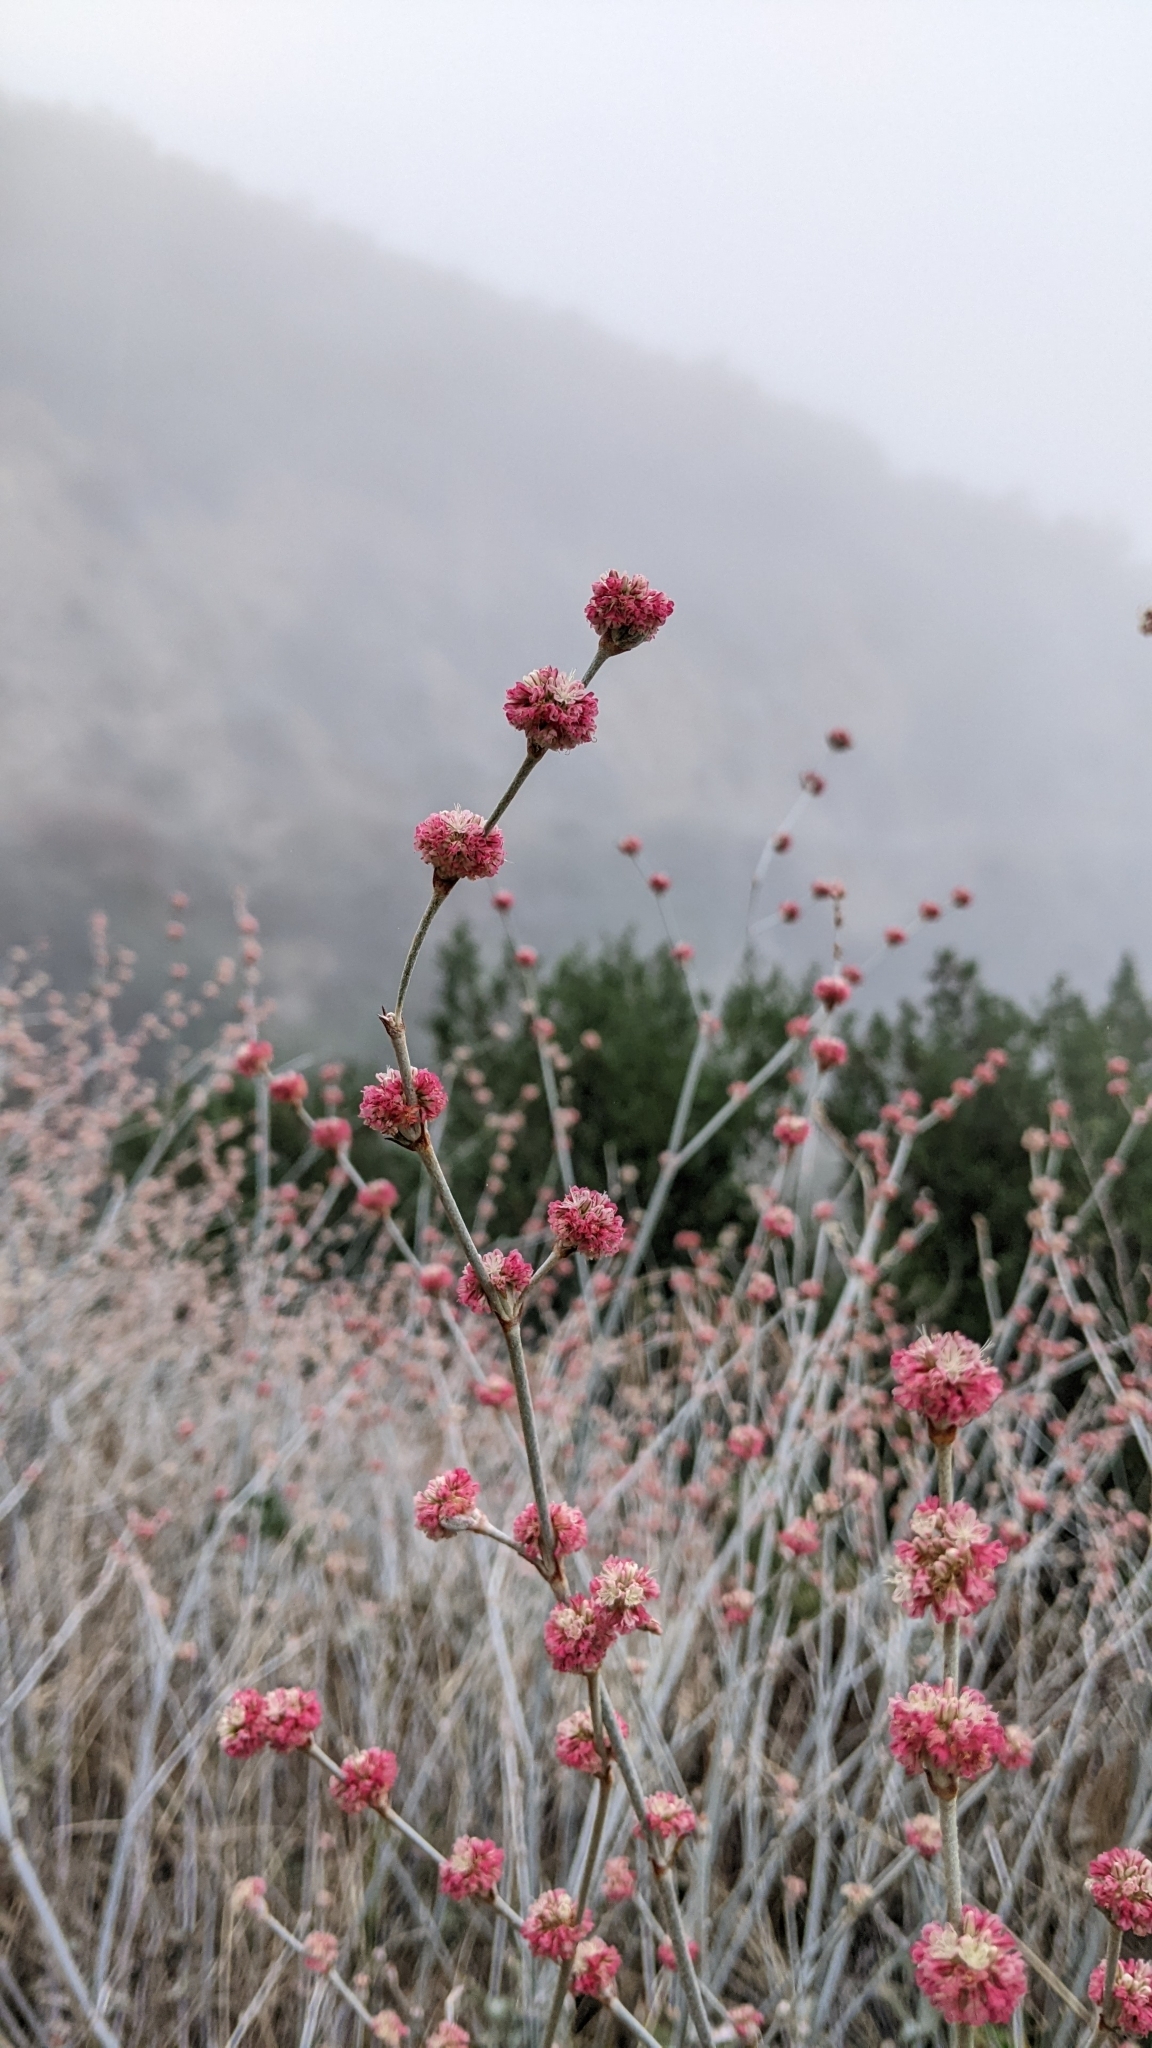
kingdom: Plantae
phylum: Tracheophyta
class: Magnoliopsida
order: Caryophyllales
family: Polygonaceae
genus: Eriogonum
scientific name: Eriogonum elongatum
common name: Long-stem wild buckwheat
